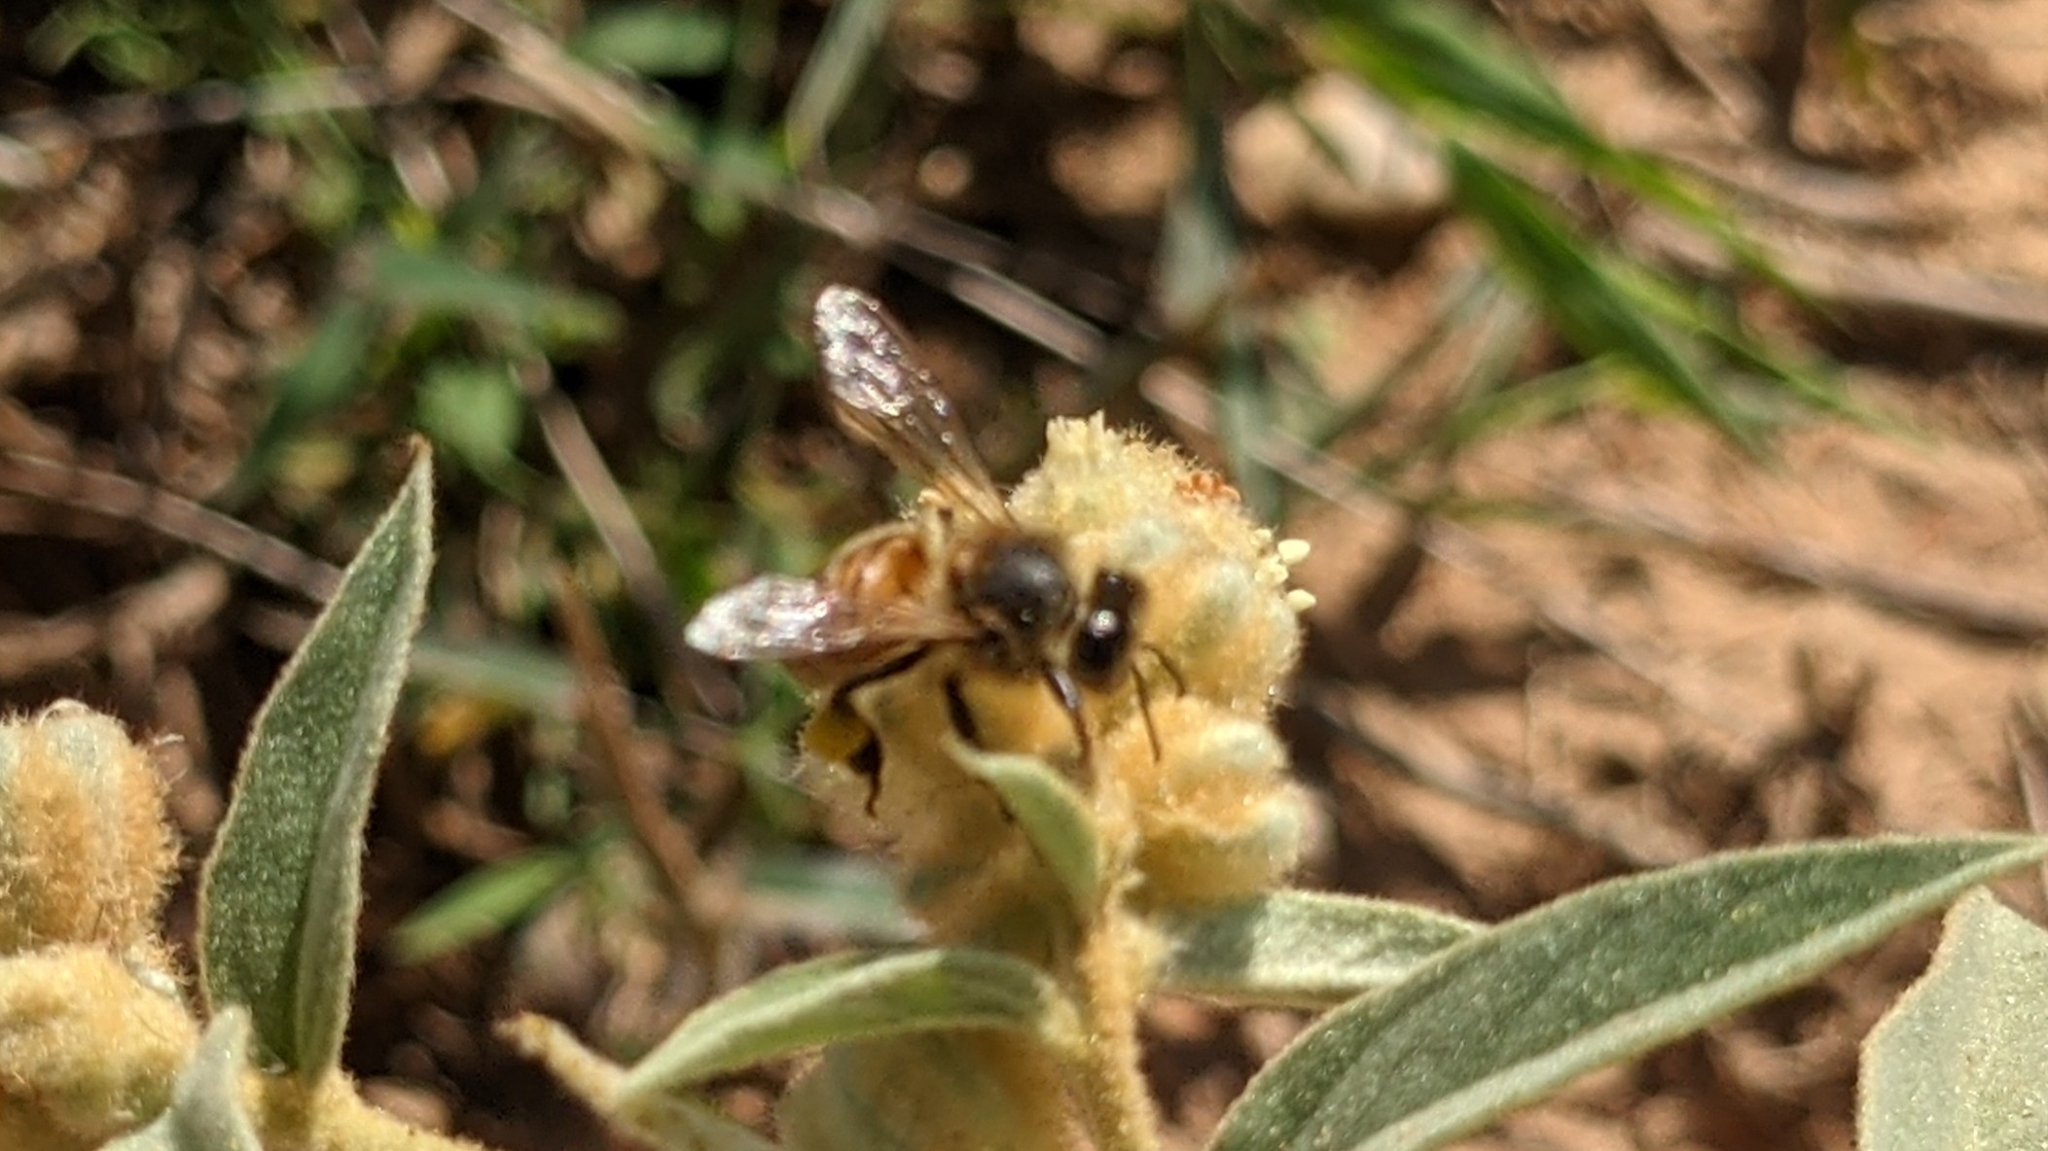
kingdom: Animalia
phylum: Arthropoda
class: Insecta
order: Hymenoptera
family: Apidae
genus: Apis
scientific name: Apis mellifera
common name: Honey bee
